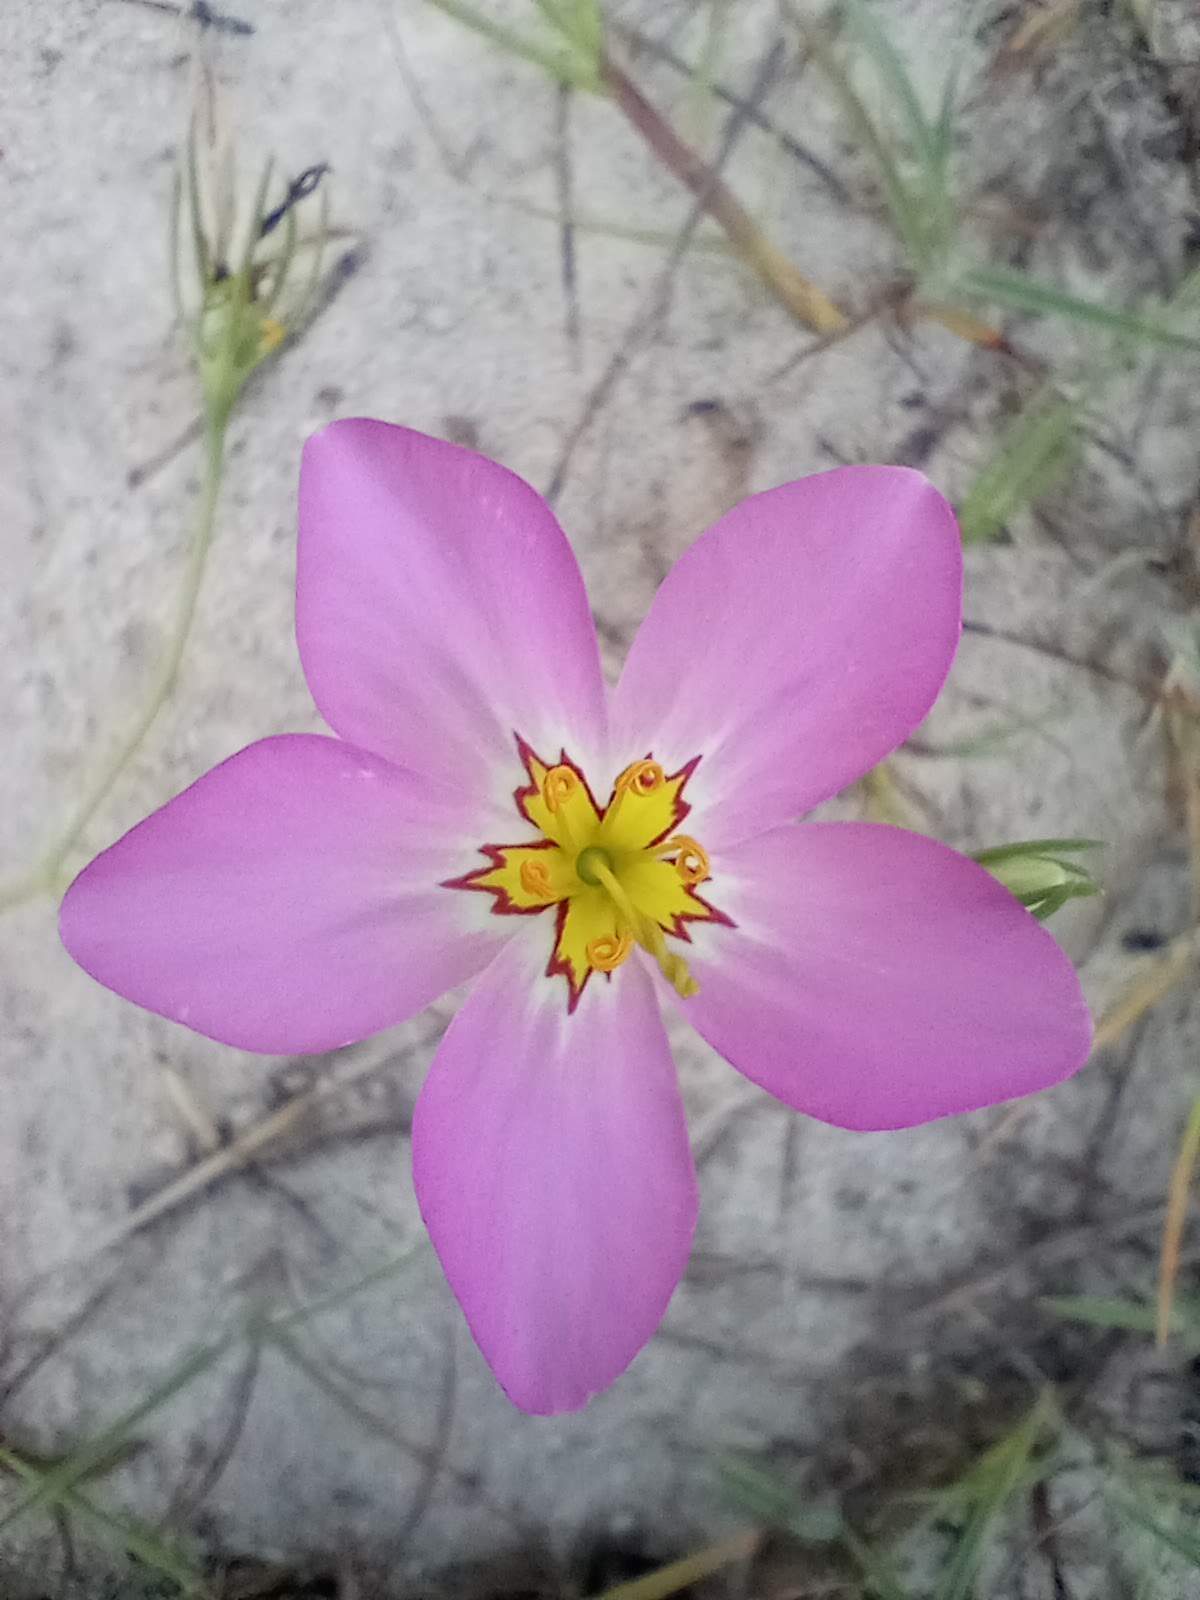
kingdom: Plantae
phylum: Tracheophyta
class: Magnoliopsida
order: Gentianales
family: Gentianaceae
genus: Sabatia
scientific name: Sabatia stellaris
